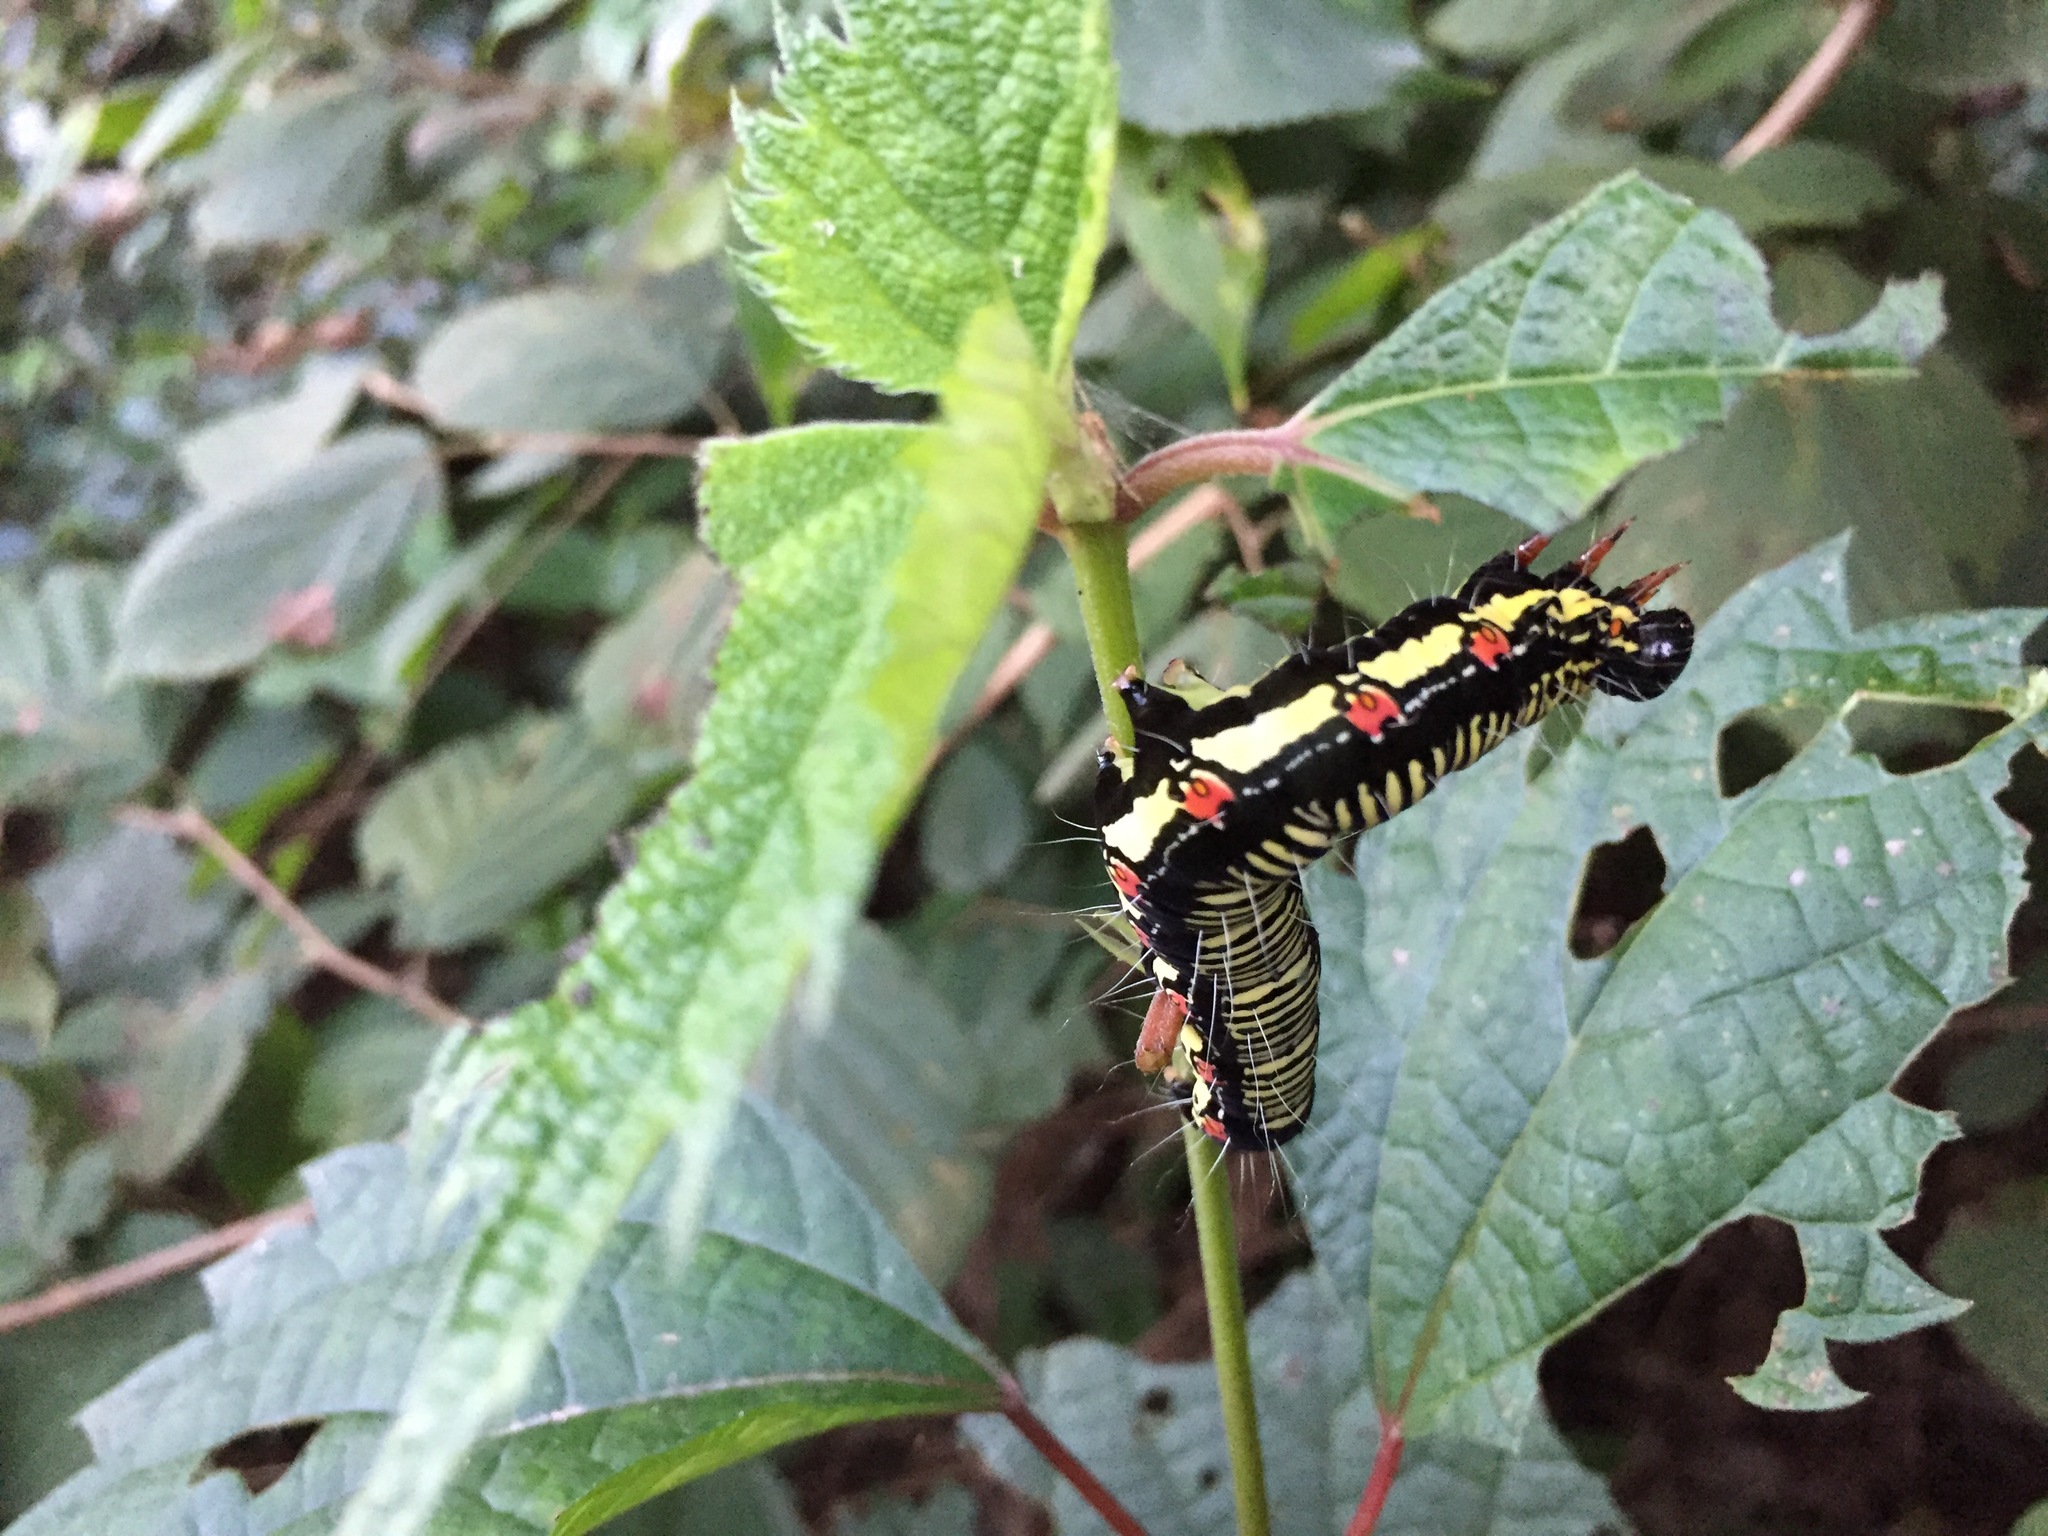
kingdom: Animalia
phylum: Arthropoda
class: Insecta
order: Lepidoptera
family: Erebidae
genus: Arcte
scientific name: Arcte coerula
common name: Ramie moth
